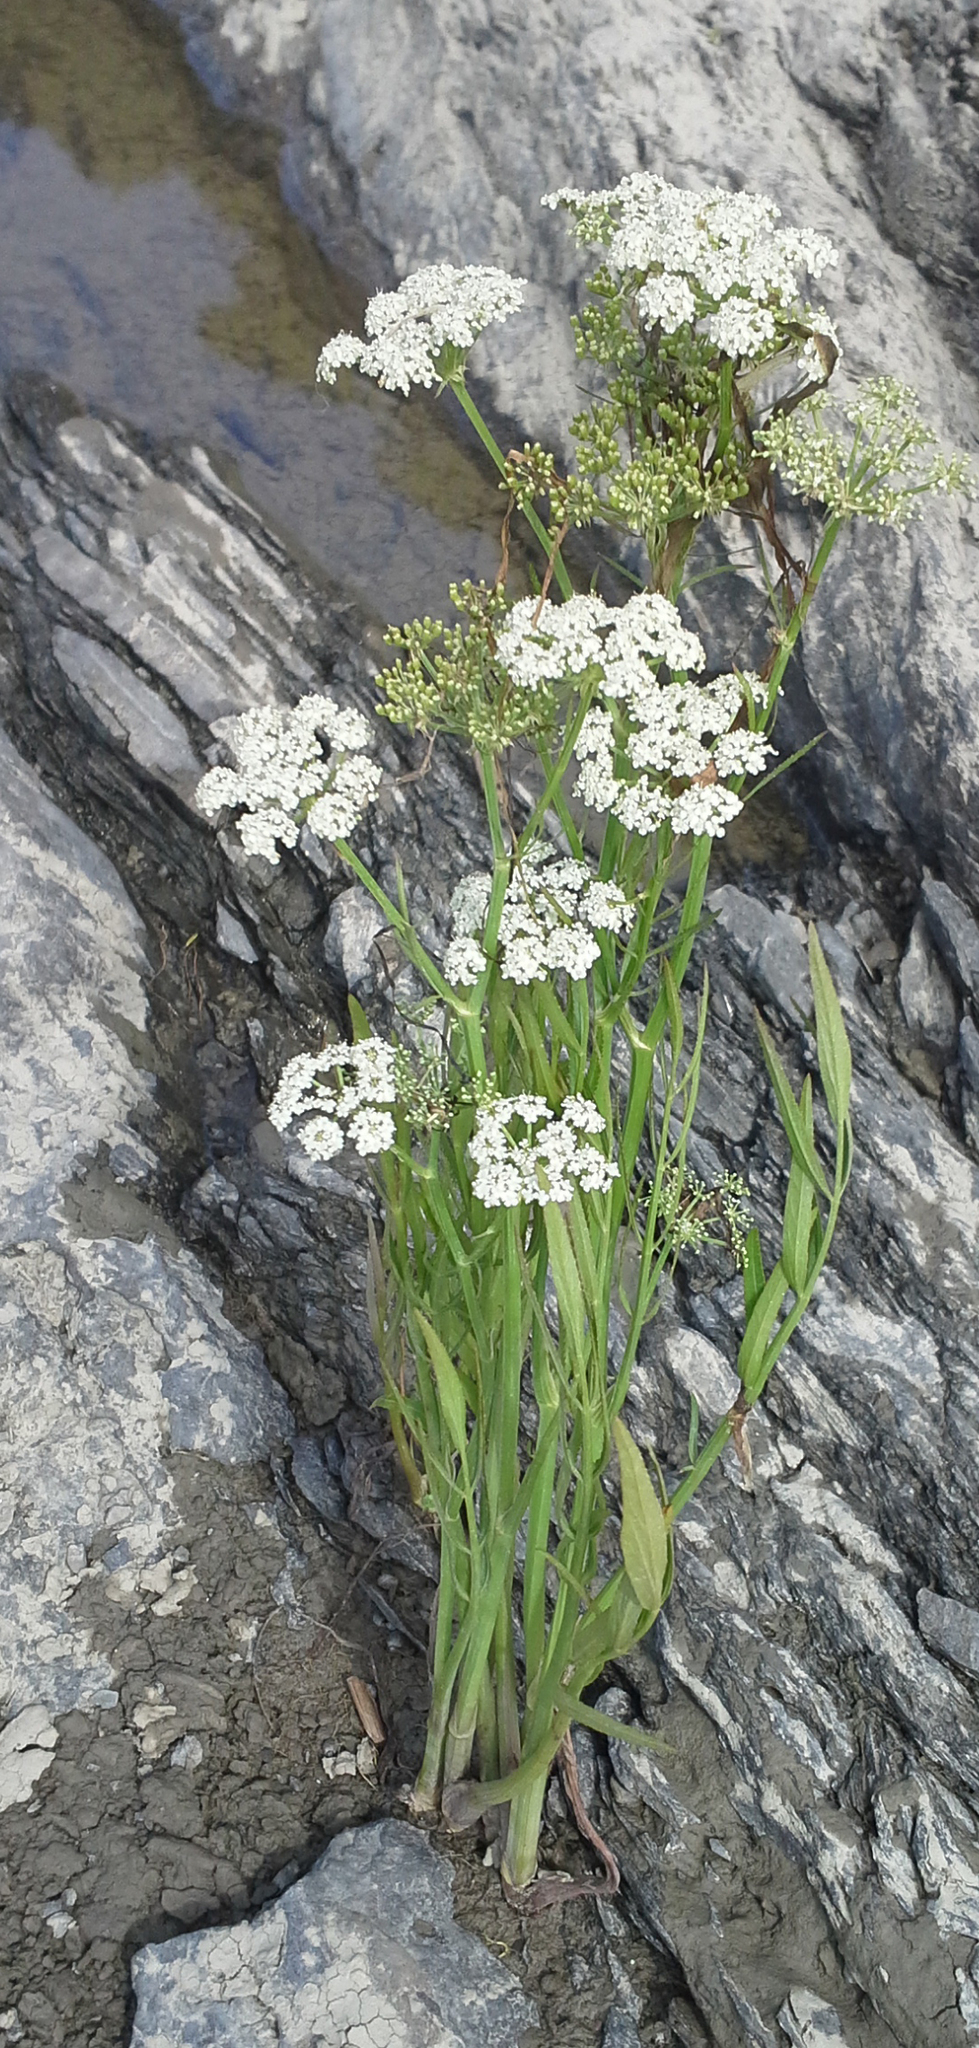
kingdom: Plantae
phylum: Tracheophyta
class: Magnoliopsida
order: Apiales
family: Apiaceae
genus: Sium
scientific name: Sium suave
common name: Hemlock water-parsnip
